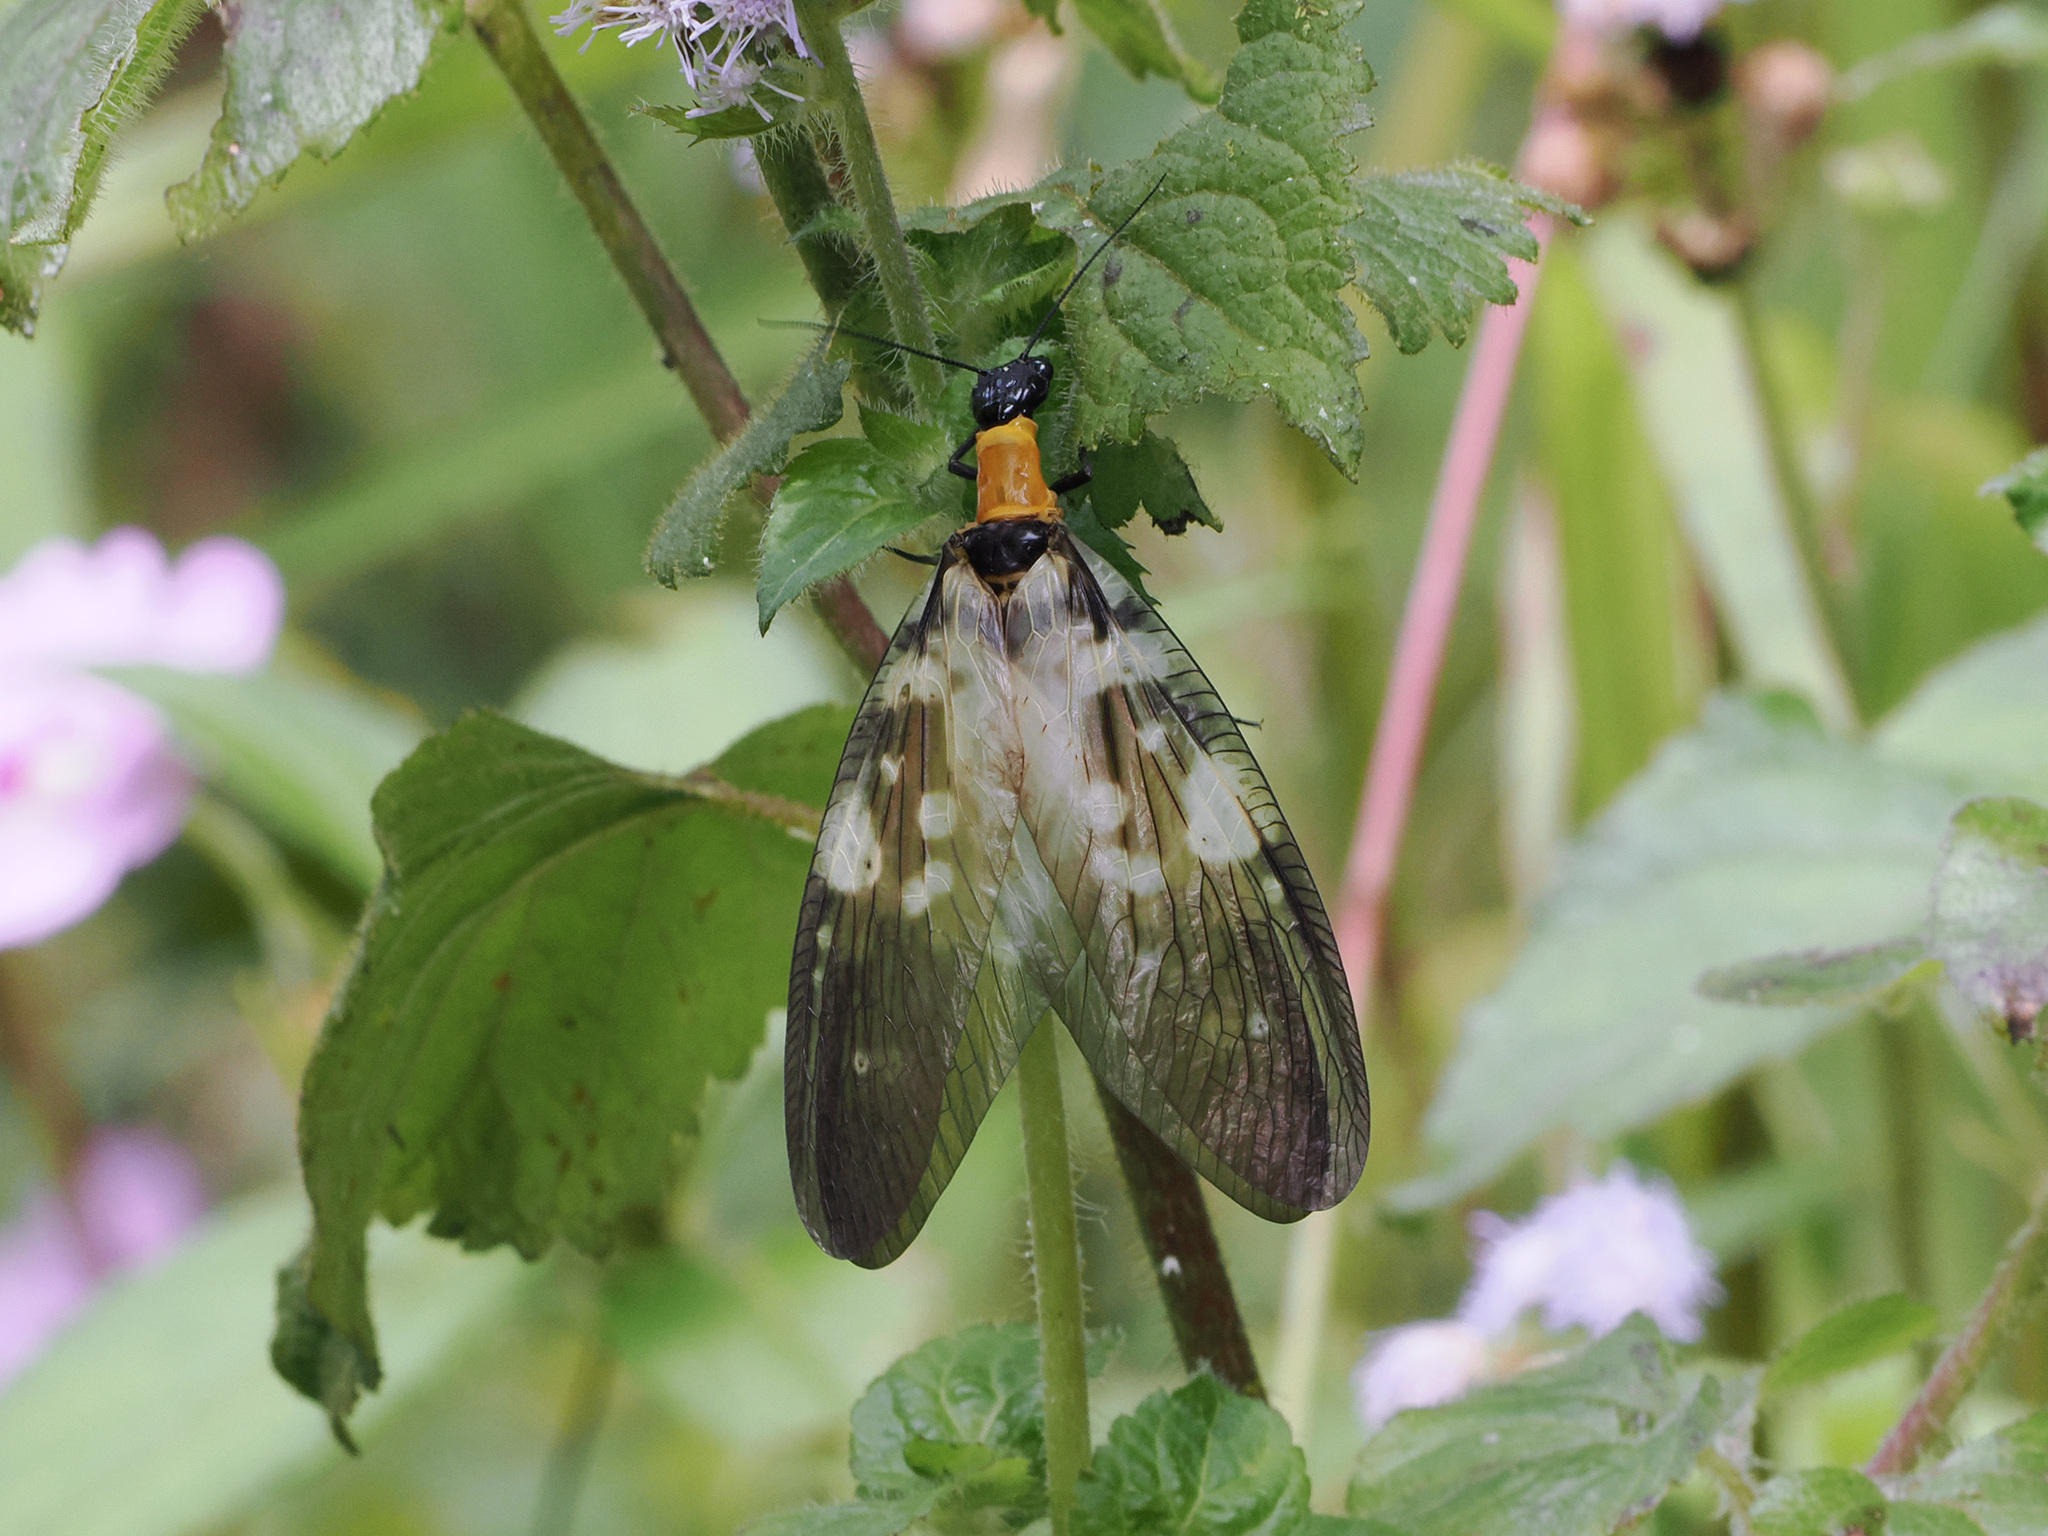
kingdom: Animalia
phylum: Arthropoda
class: Insecta
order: Megaloptera
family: Corydalidae
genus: Protohermes
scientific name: Protohermes
